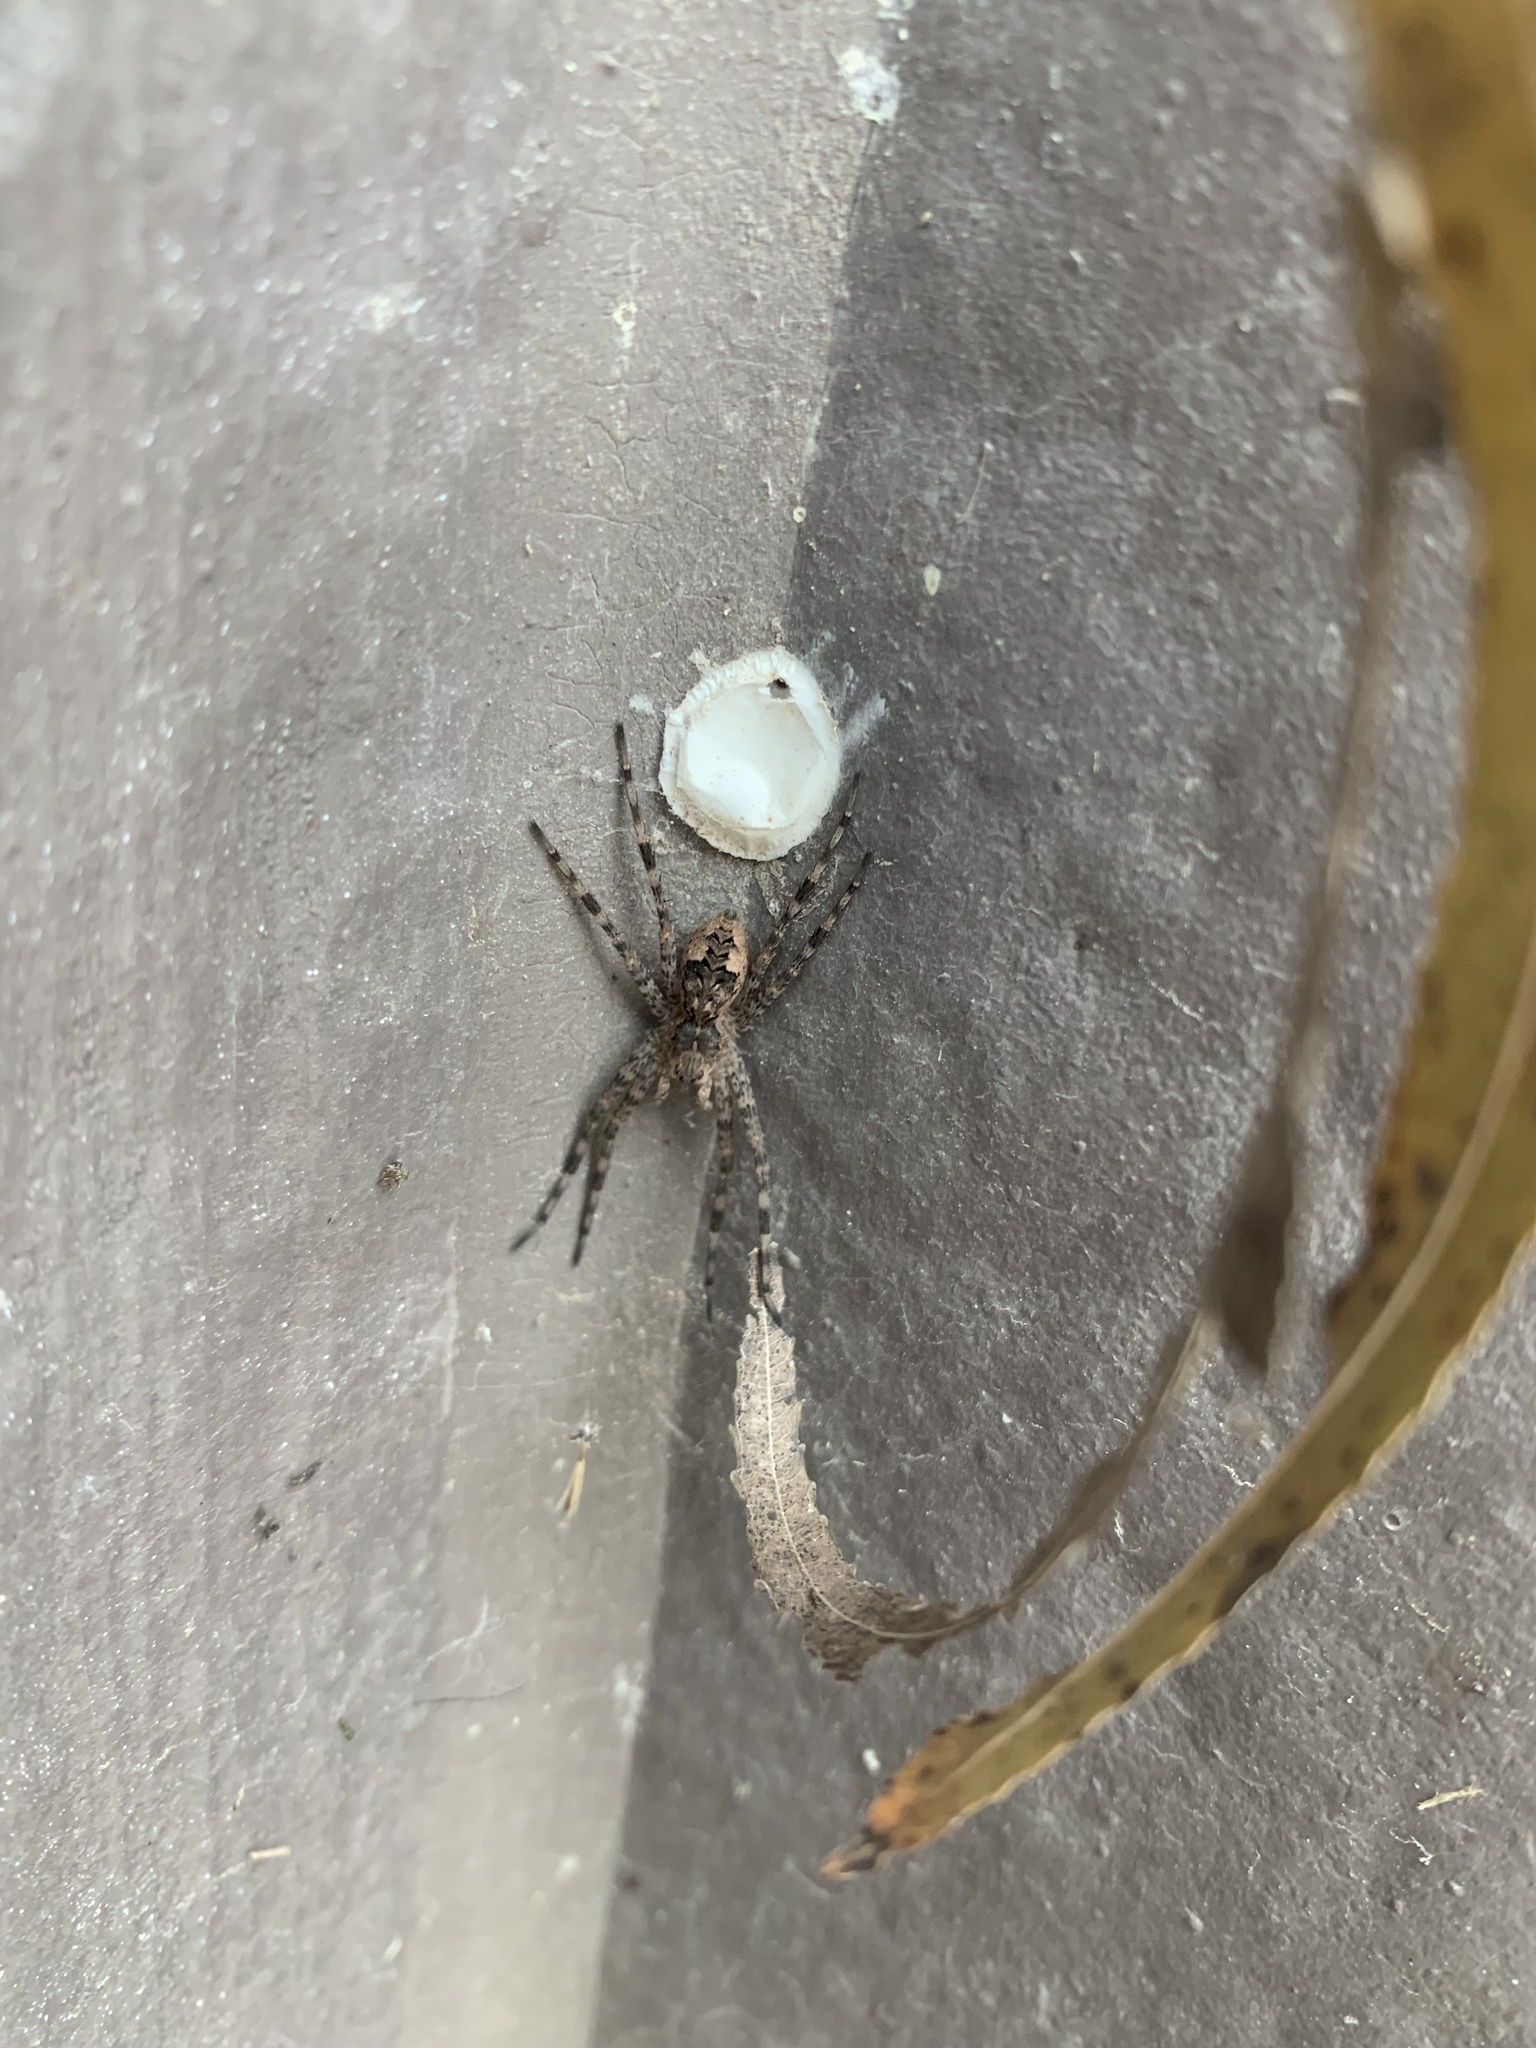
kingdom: Animalia
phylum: Arthropoda
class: Arachnida
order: Araneae
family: Pisauridae
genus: Dolomedes
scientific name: Dolomedes tenebrosus
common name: Dark fishing spider
